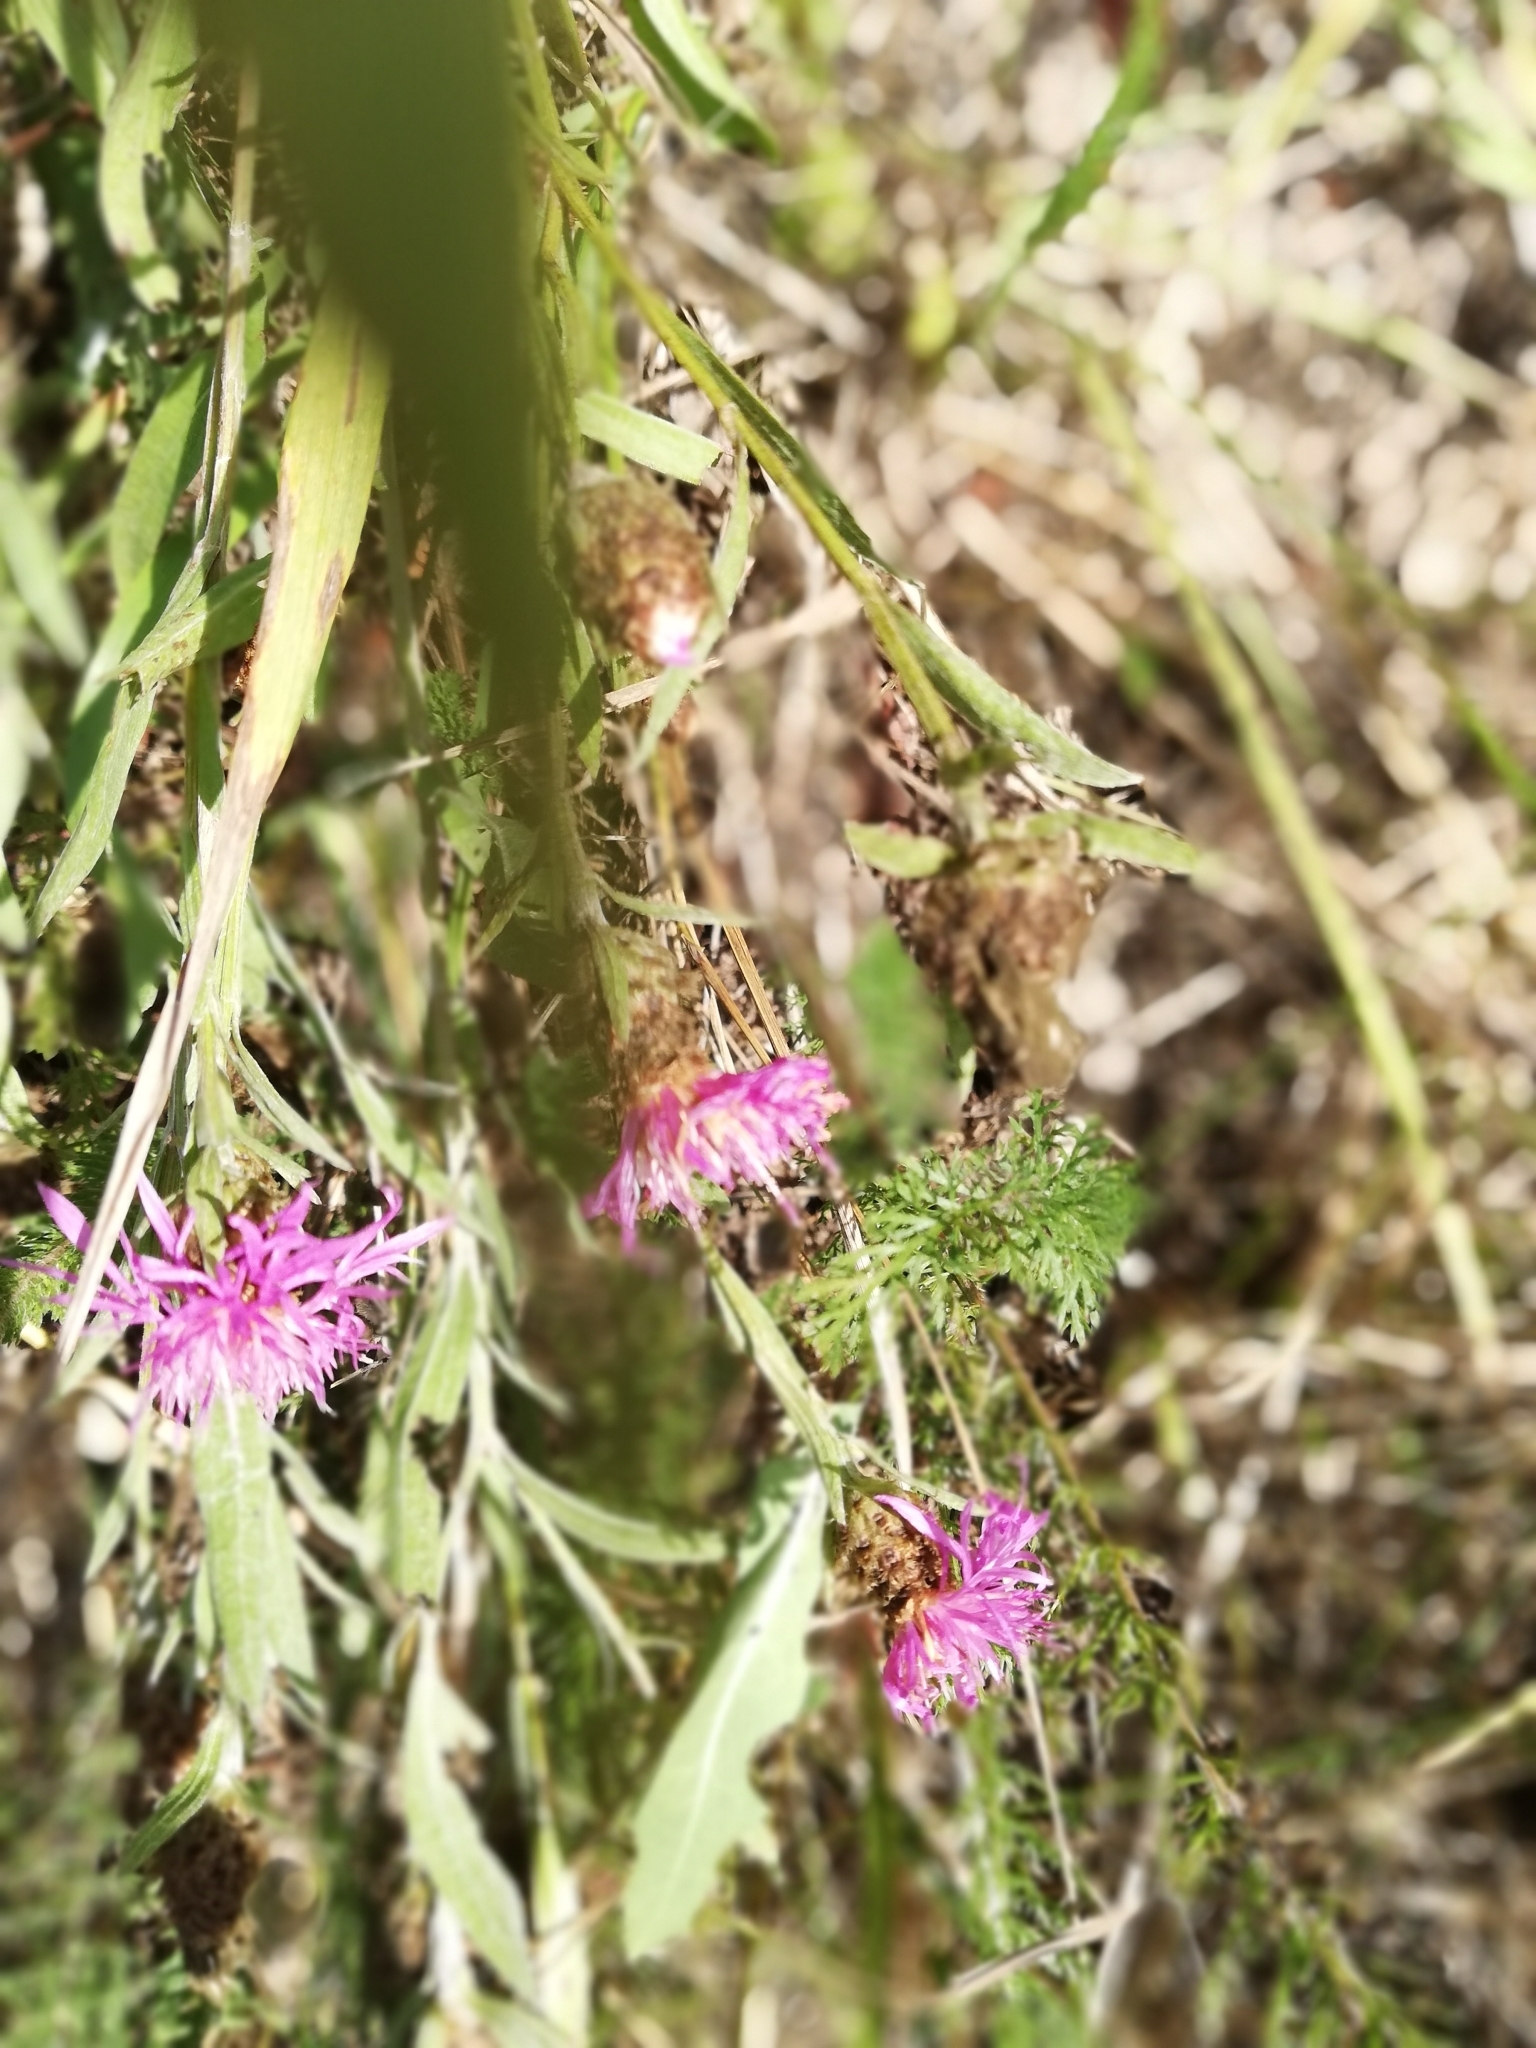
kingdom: Plantae
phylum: Tracheophyta
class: Magnoliopsida
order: Asterales
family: Asteraceae
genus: Centaurea
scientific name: Centaurea jacea
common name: Brown knapweed
